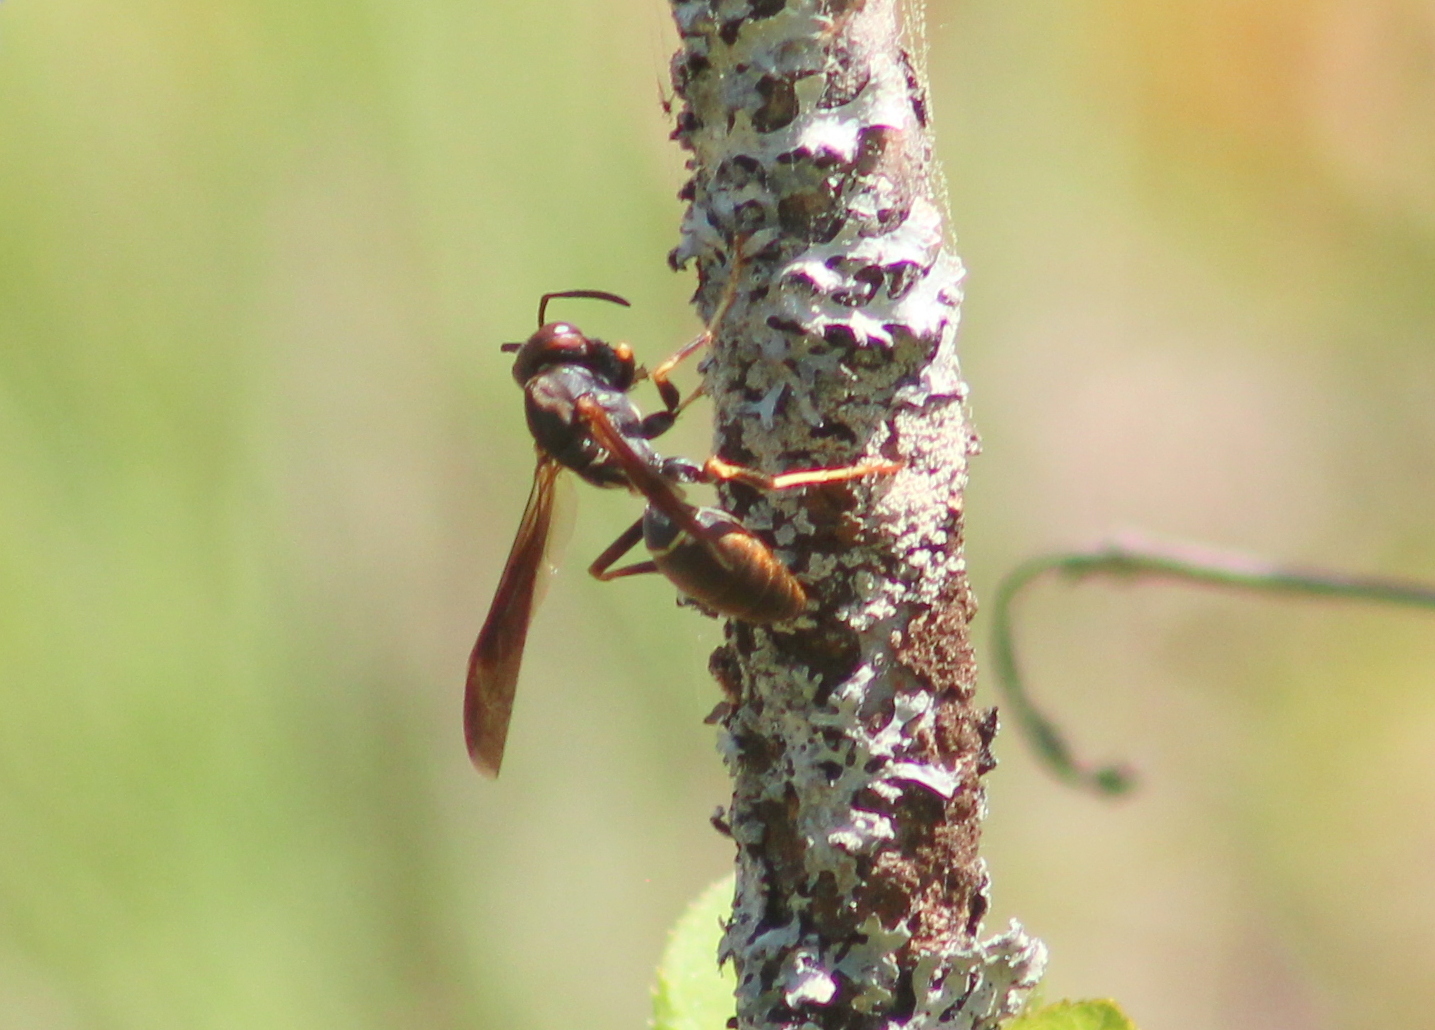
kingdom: Animalia
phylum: Arthropoda
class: Insecta
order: Hymenoptera
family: Eumenidae
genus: Polistes
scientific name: Polistes fuscatus
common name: Dark paper wasp
